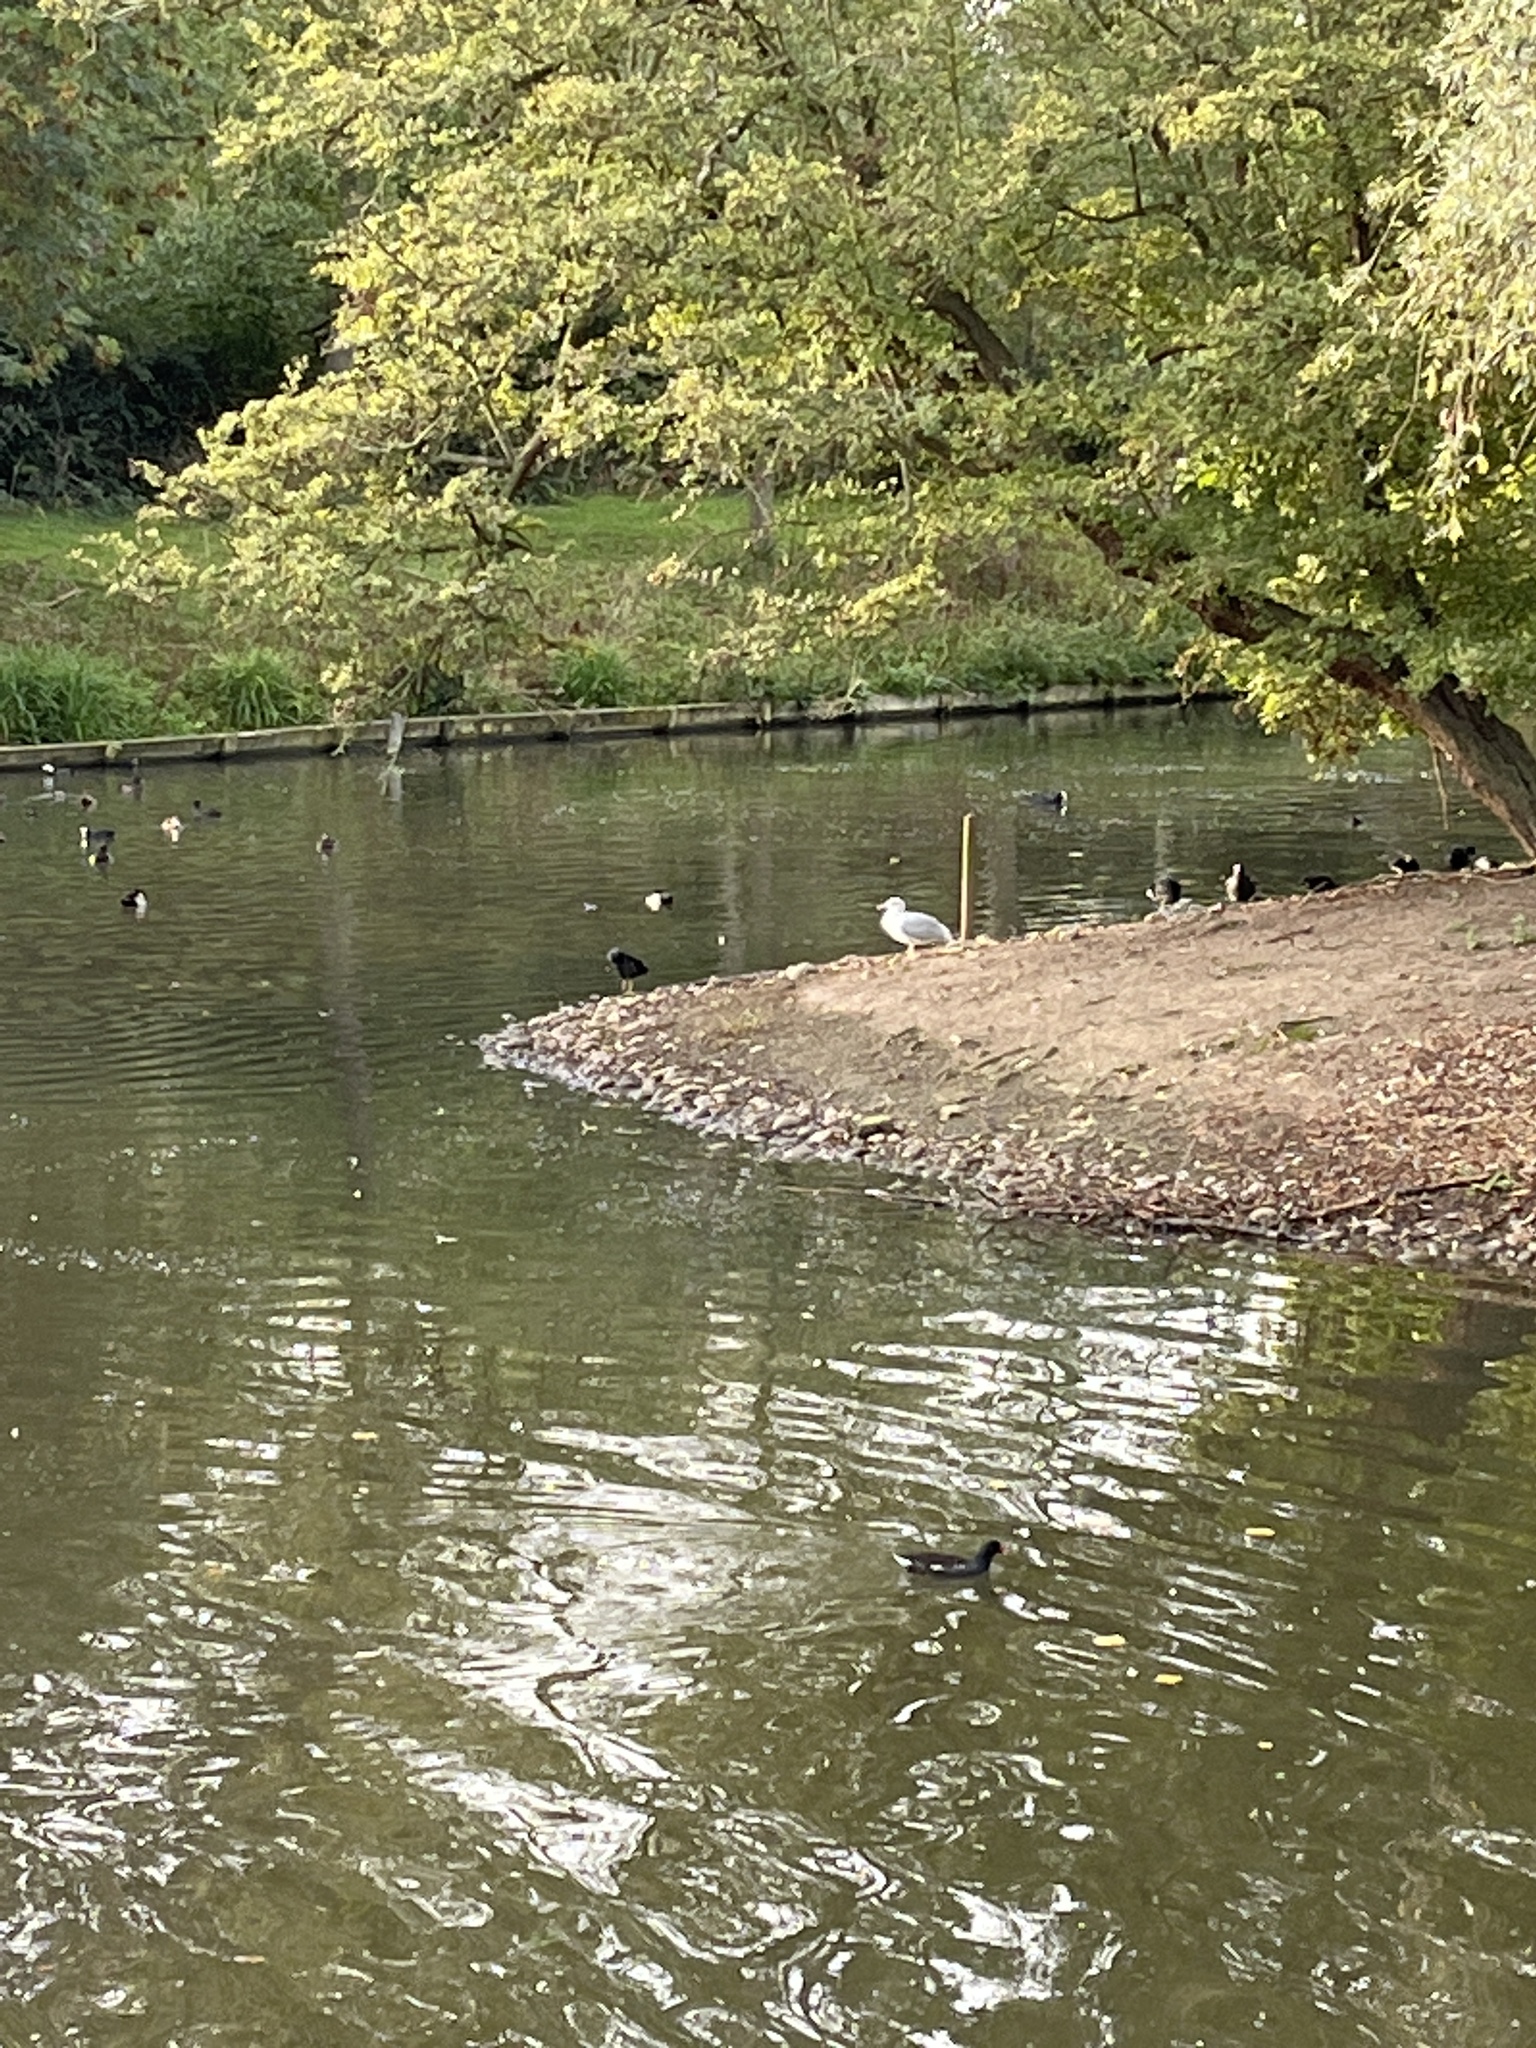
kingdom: Animalia
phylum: Chordata
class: Aves
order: Charadriiformes
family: Laridae
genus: Larus
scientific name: Larus argentatus
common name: Herring gull
